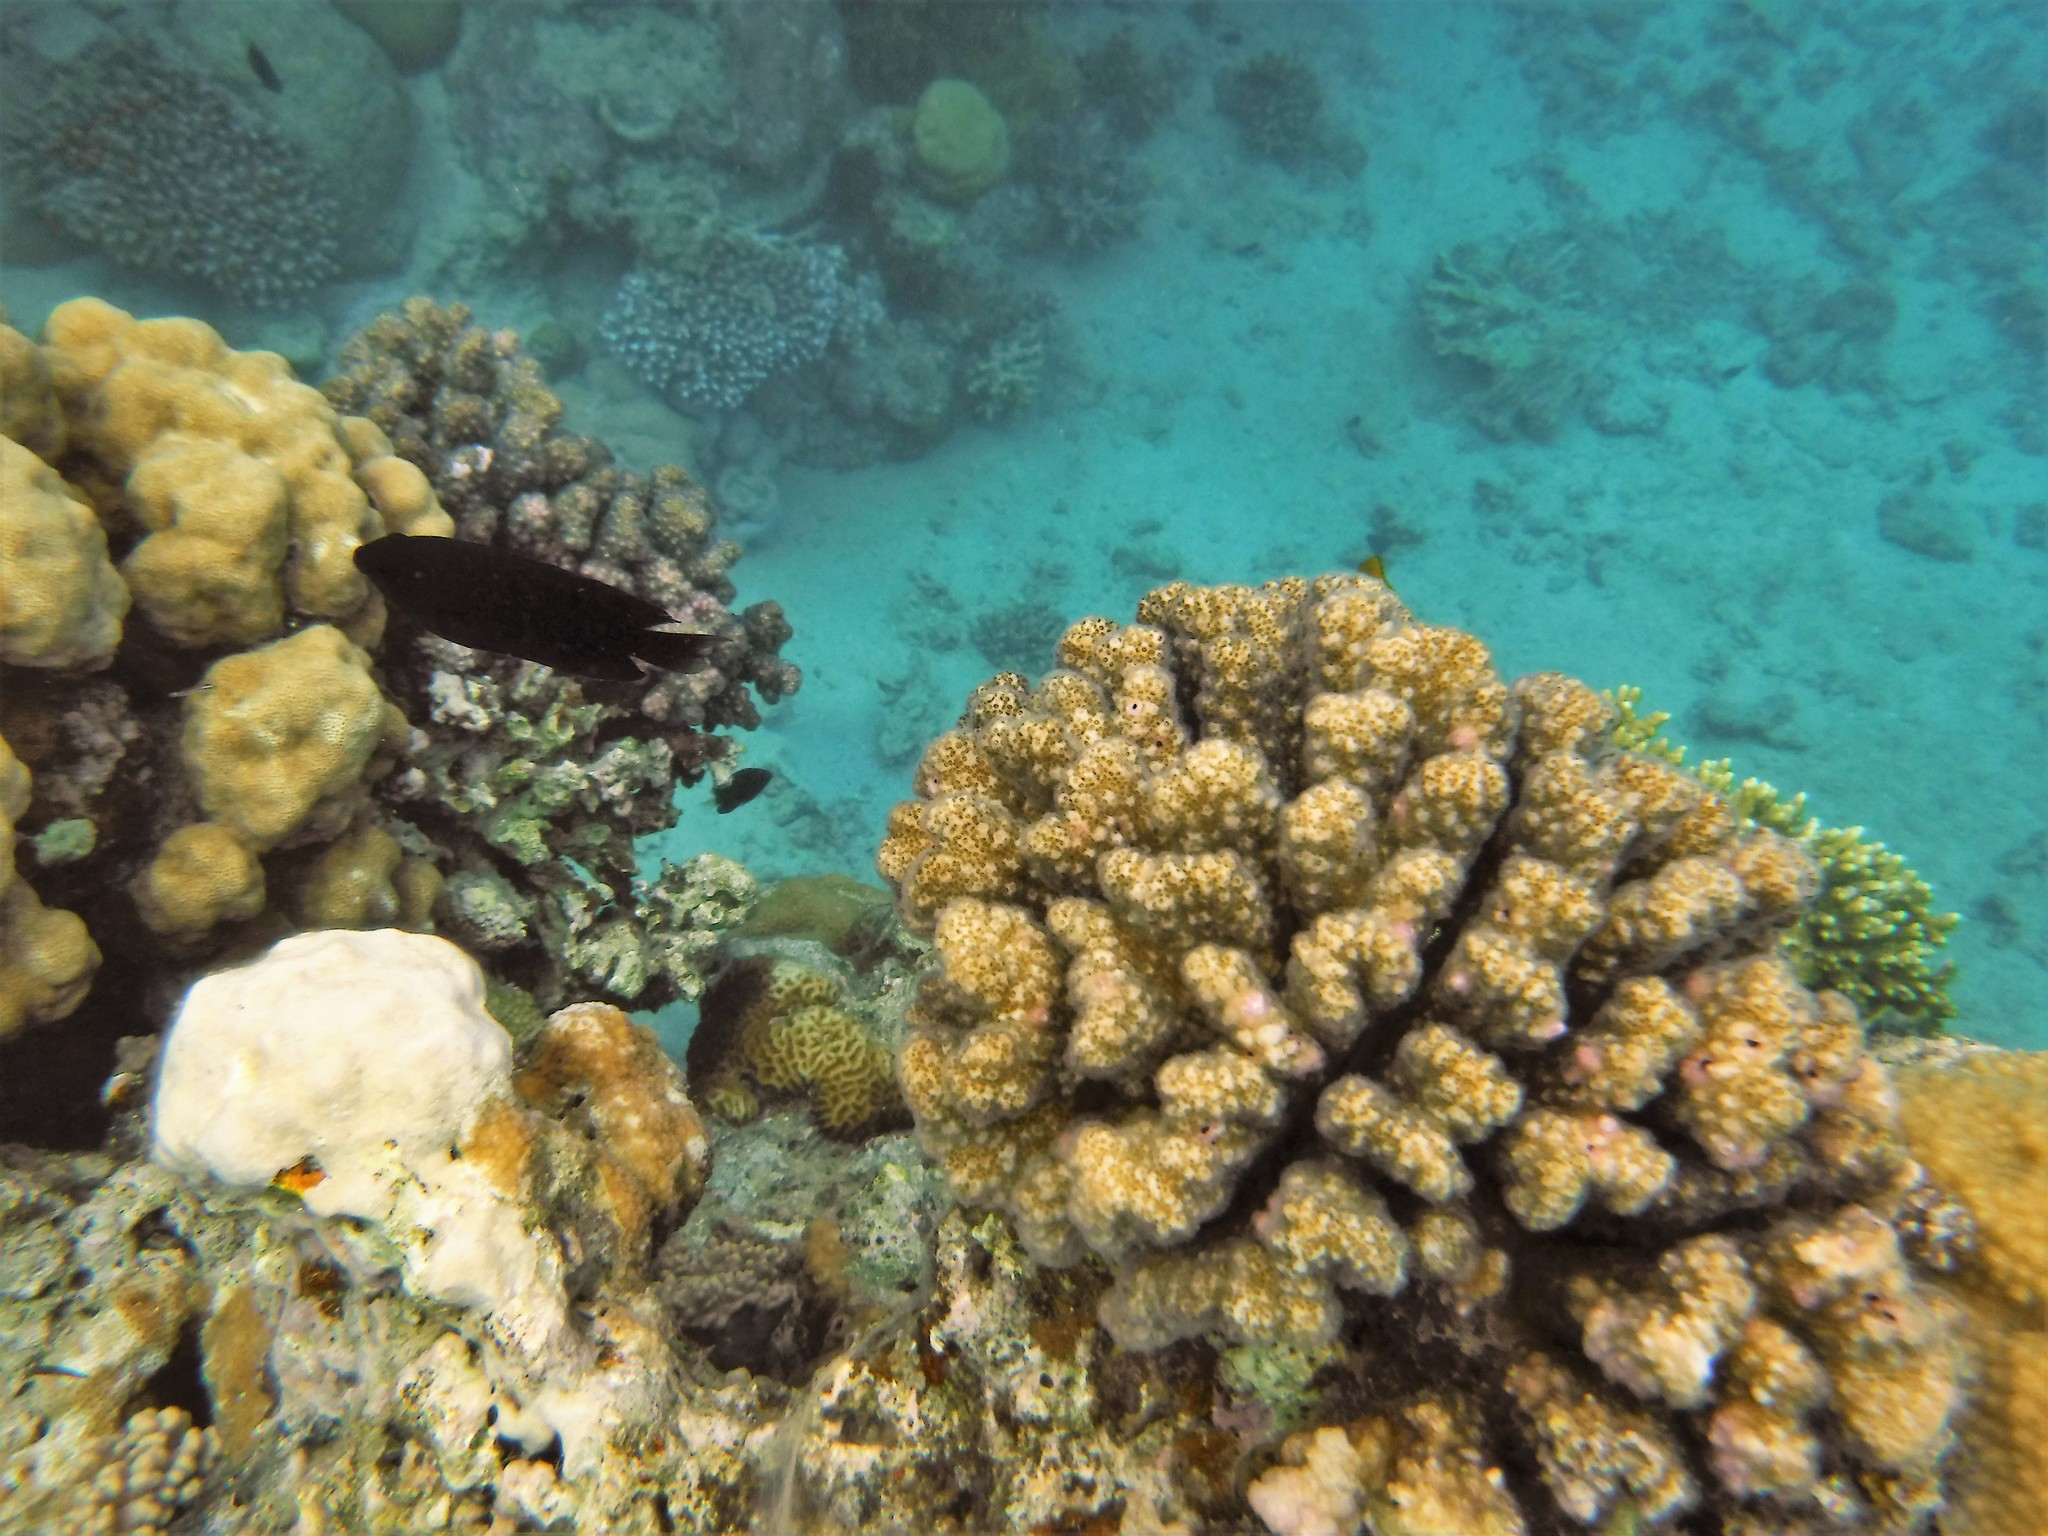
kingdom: Animalia
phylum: Cnidaria
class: Anthozoa
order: Scleractinia
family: Pocilloporidae
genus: Pocillopora
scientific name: Pocillopora verrucosa
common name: Cauliflower coral
